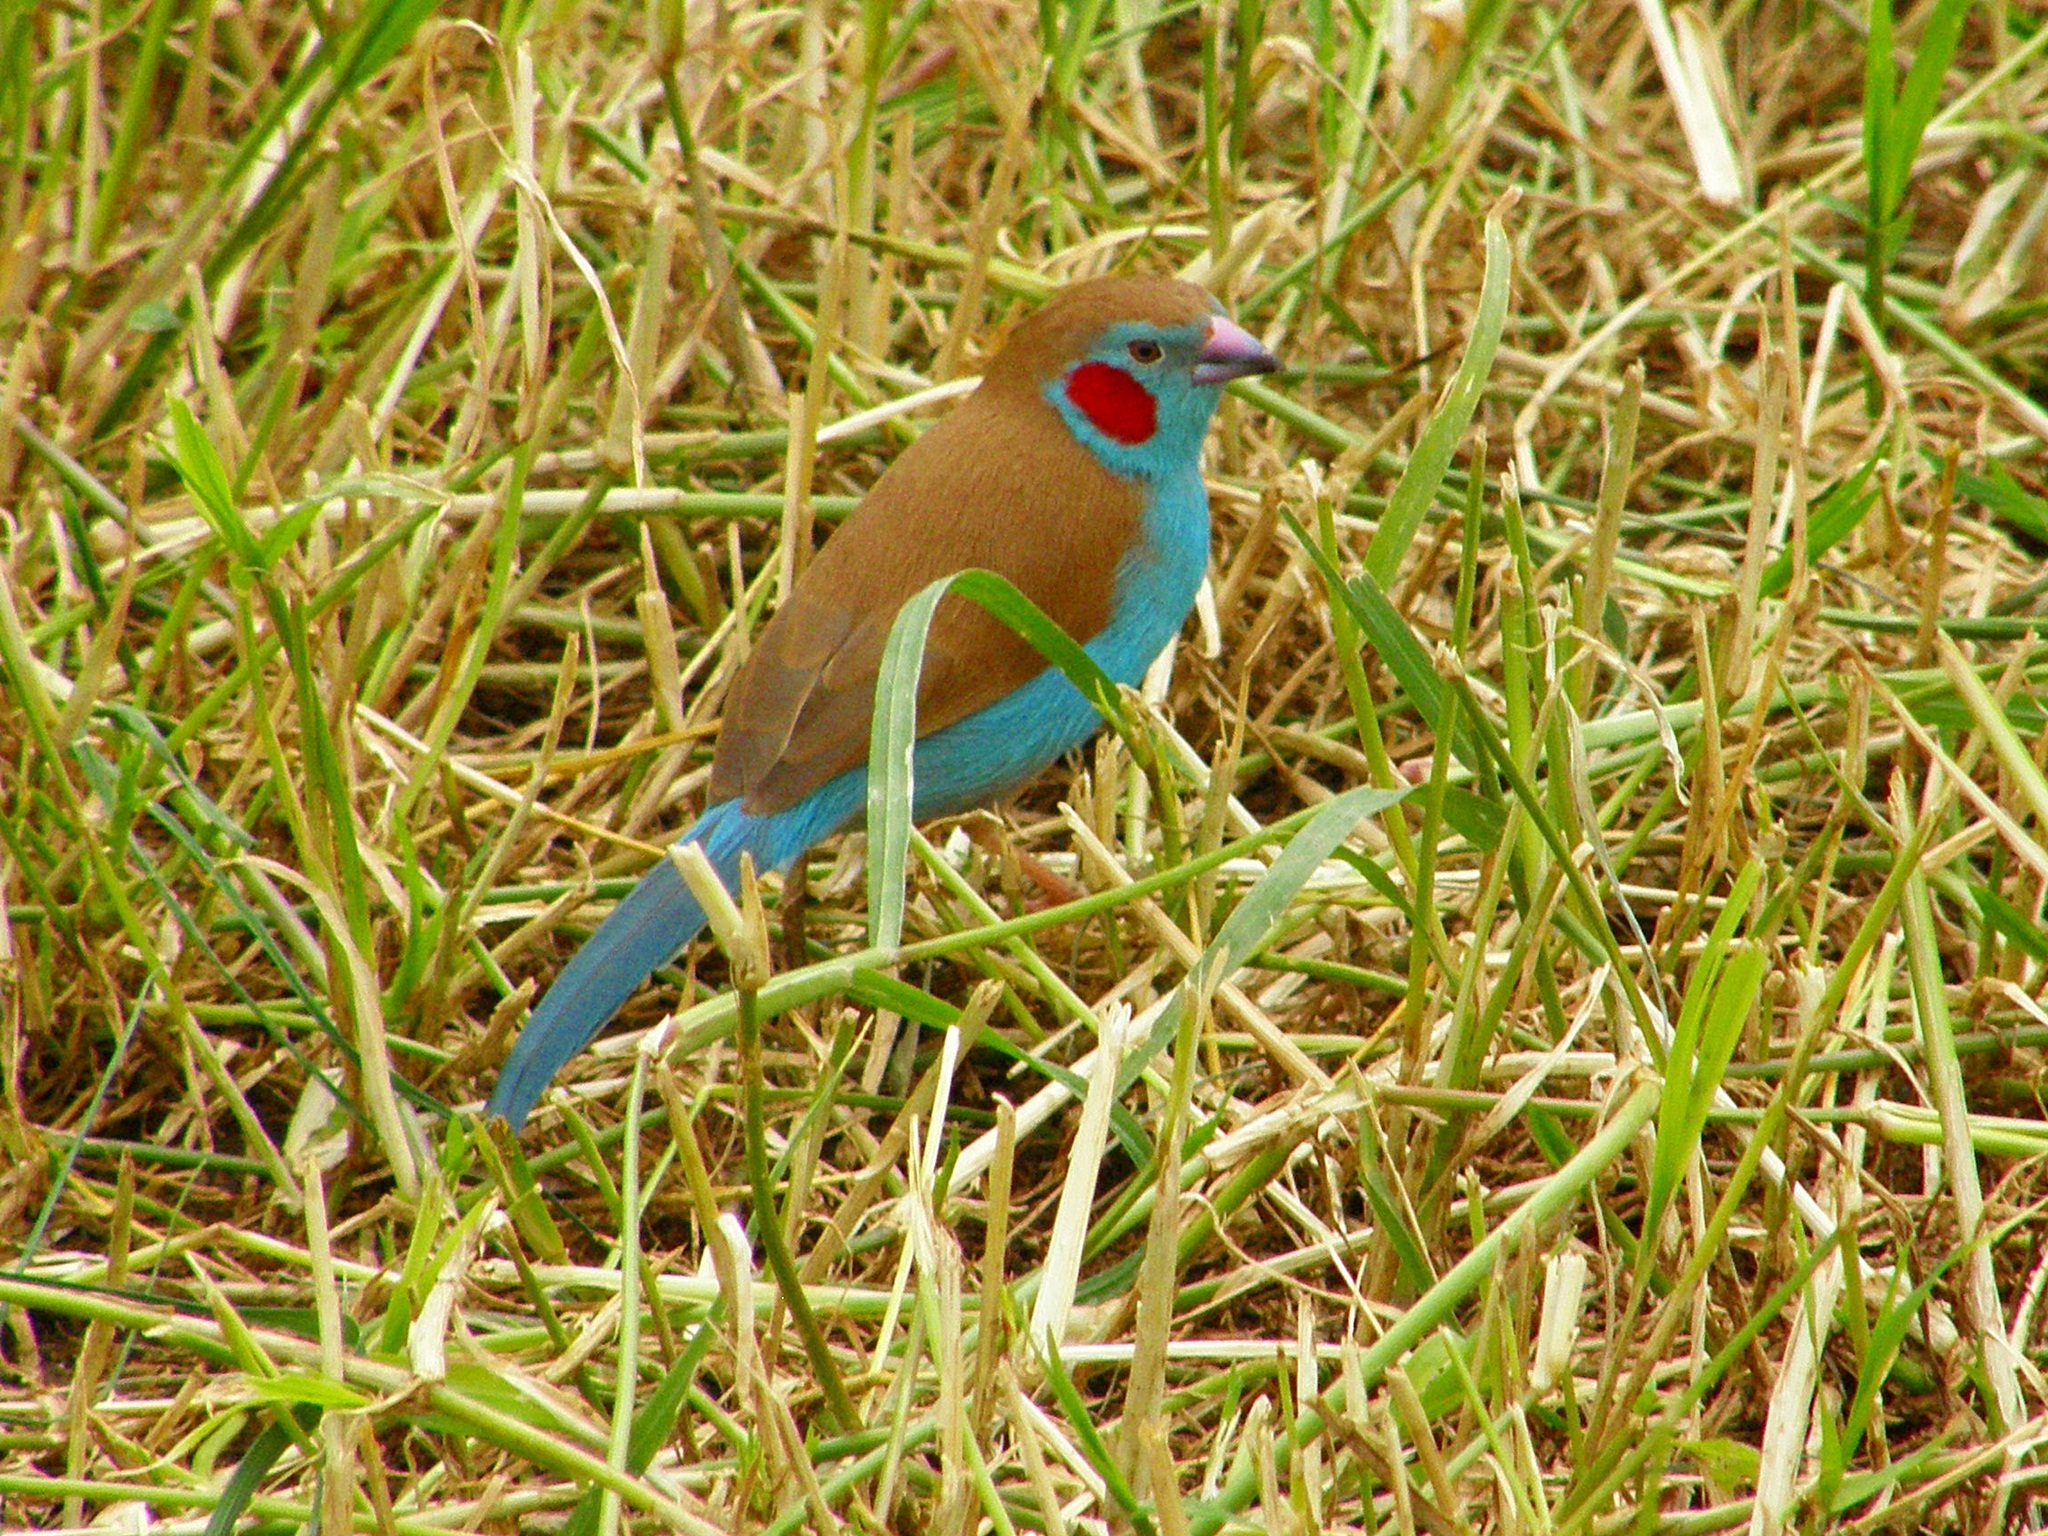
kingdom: Animalia
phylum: Chordata
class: Aves
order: Passeriformes
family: Estrildidae
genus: Uraeginthus
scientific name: Uraeginthus bengalus
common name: Red-cheeked cordon-bleu
